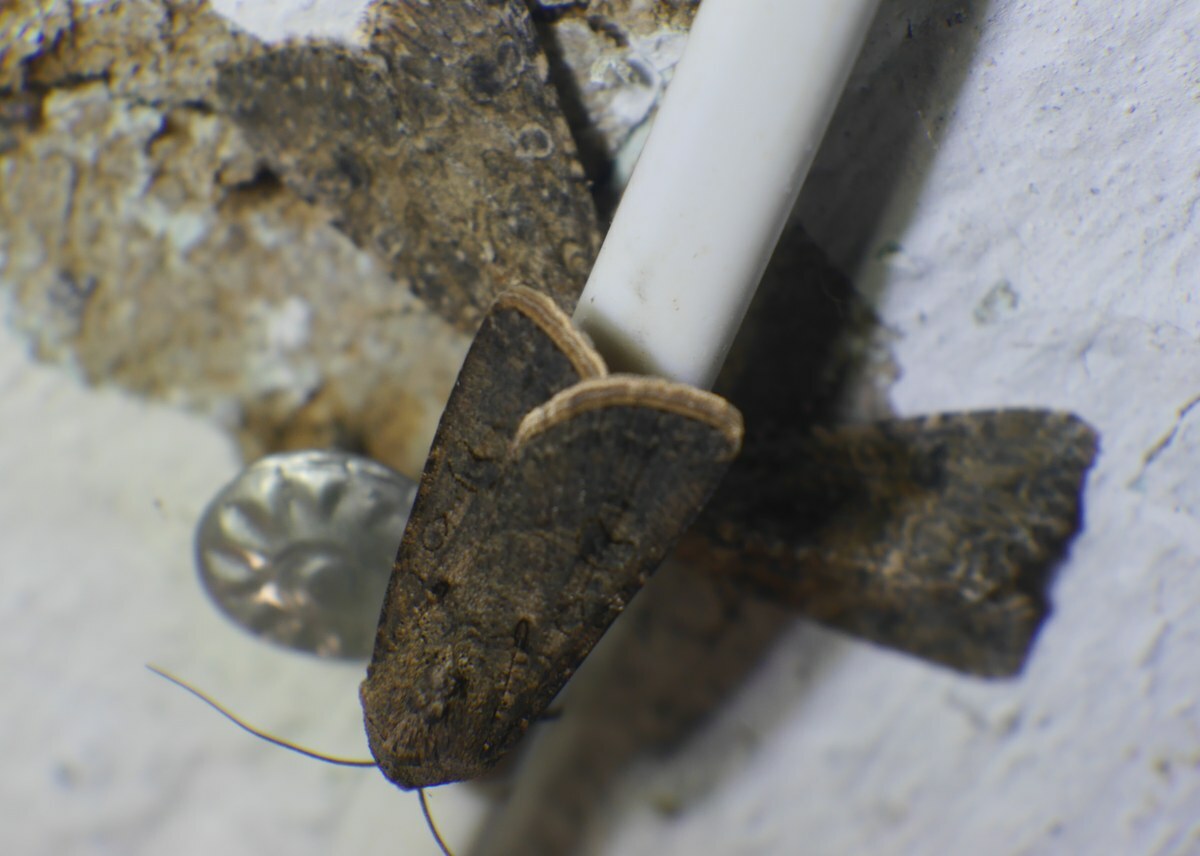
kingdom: Animalia
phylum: Arthropoda
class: Insecta
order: Lepidoptera
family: Noctuidae
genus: Agrotis
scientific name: Agrotis segetum
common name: Turnip moth
